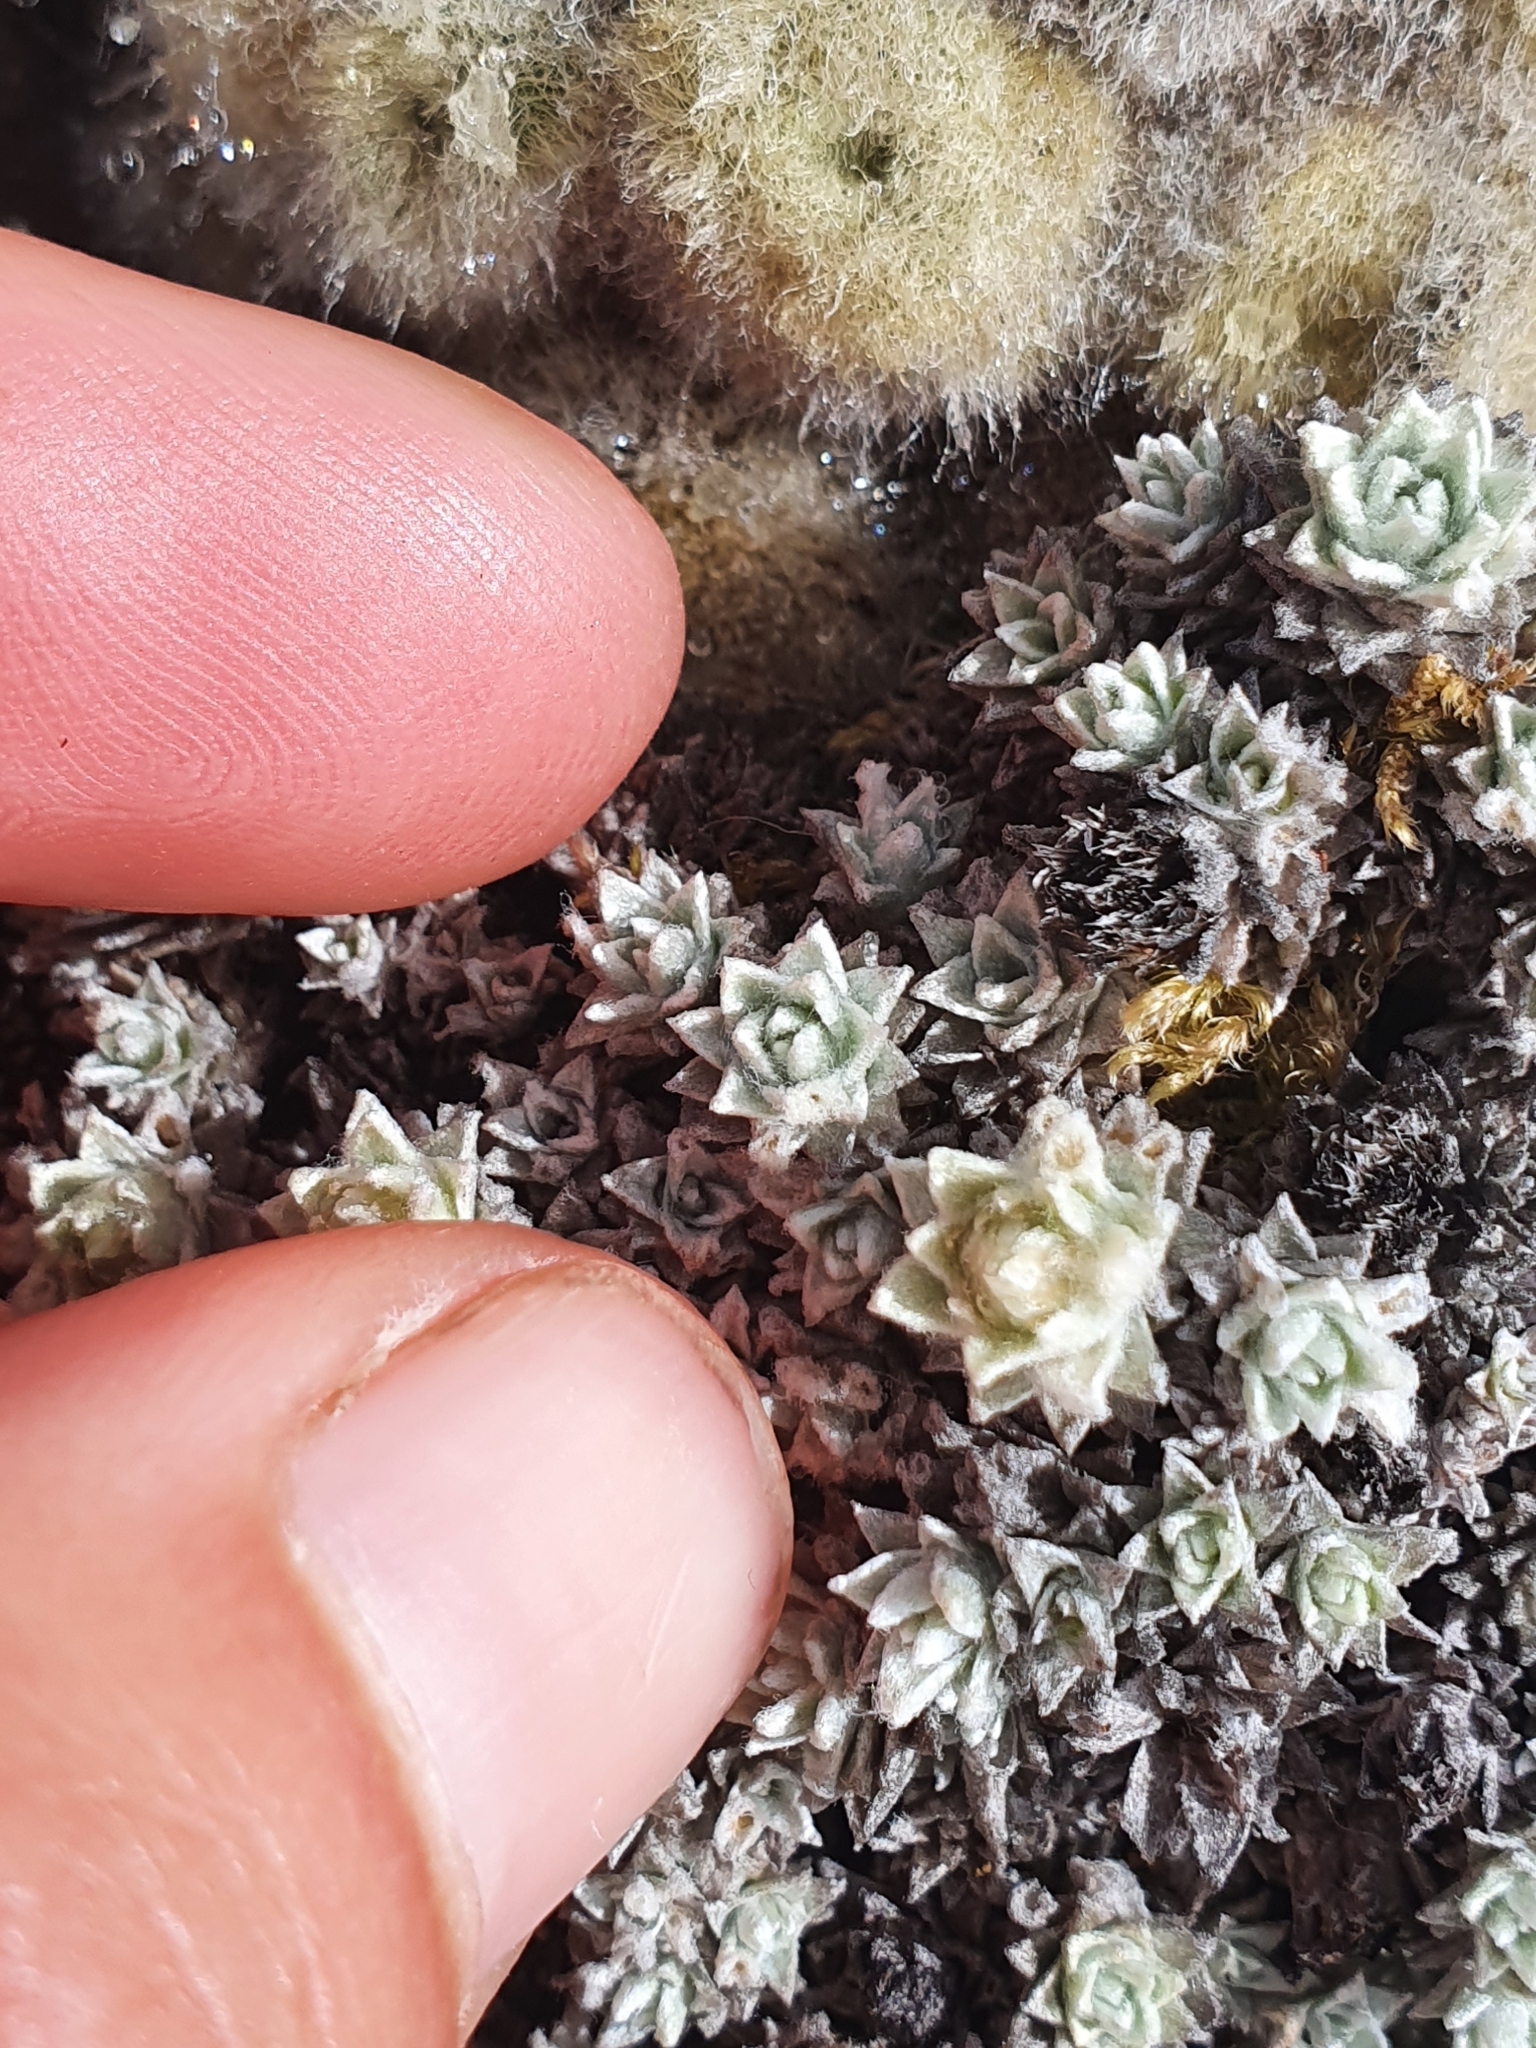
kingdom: Plantae
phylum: Tracheophyta
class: Magnoliopsida
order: Asterales
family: Asteraceae
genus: Leucogenes
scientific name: Leucogenes neglecta
